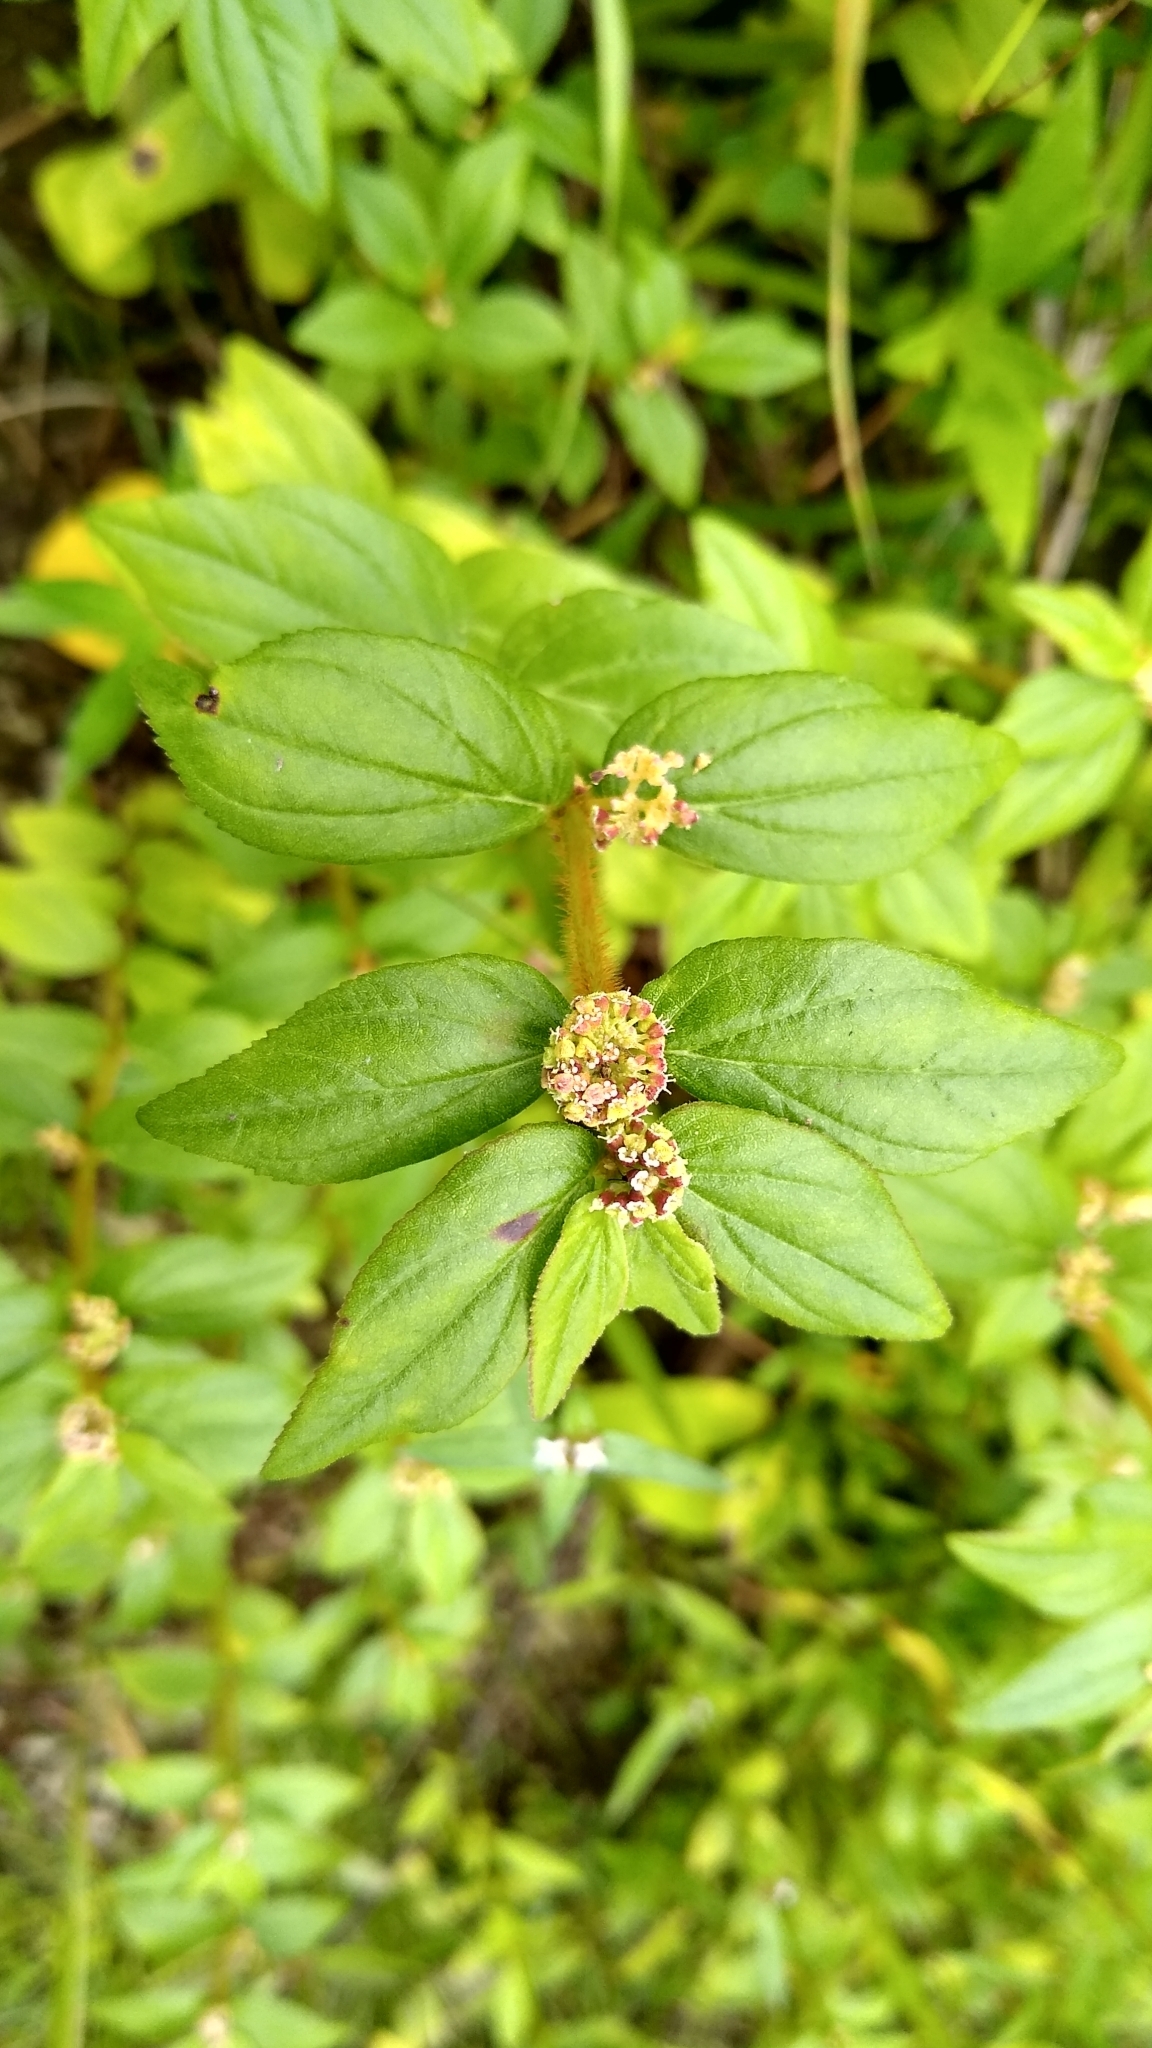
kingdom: Plantae
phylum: Tracheophyta
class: Magnoliopsida
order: Malpighiales
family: Euphorbiaceae
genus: Euphorbia
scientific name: Euphorbia hirta
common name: Pillpod sandmat
